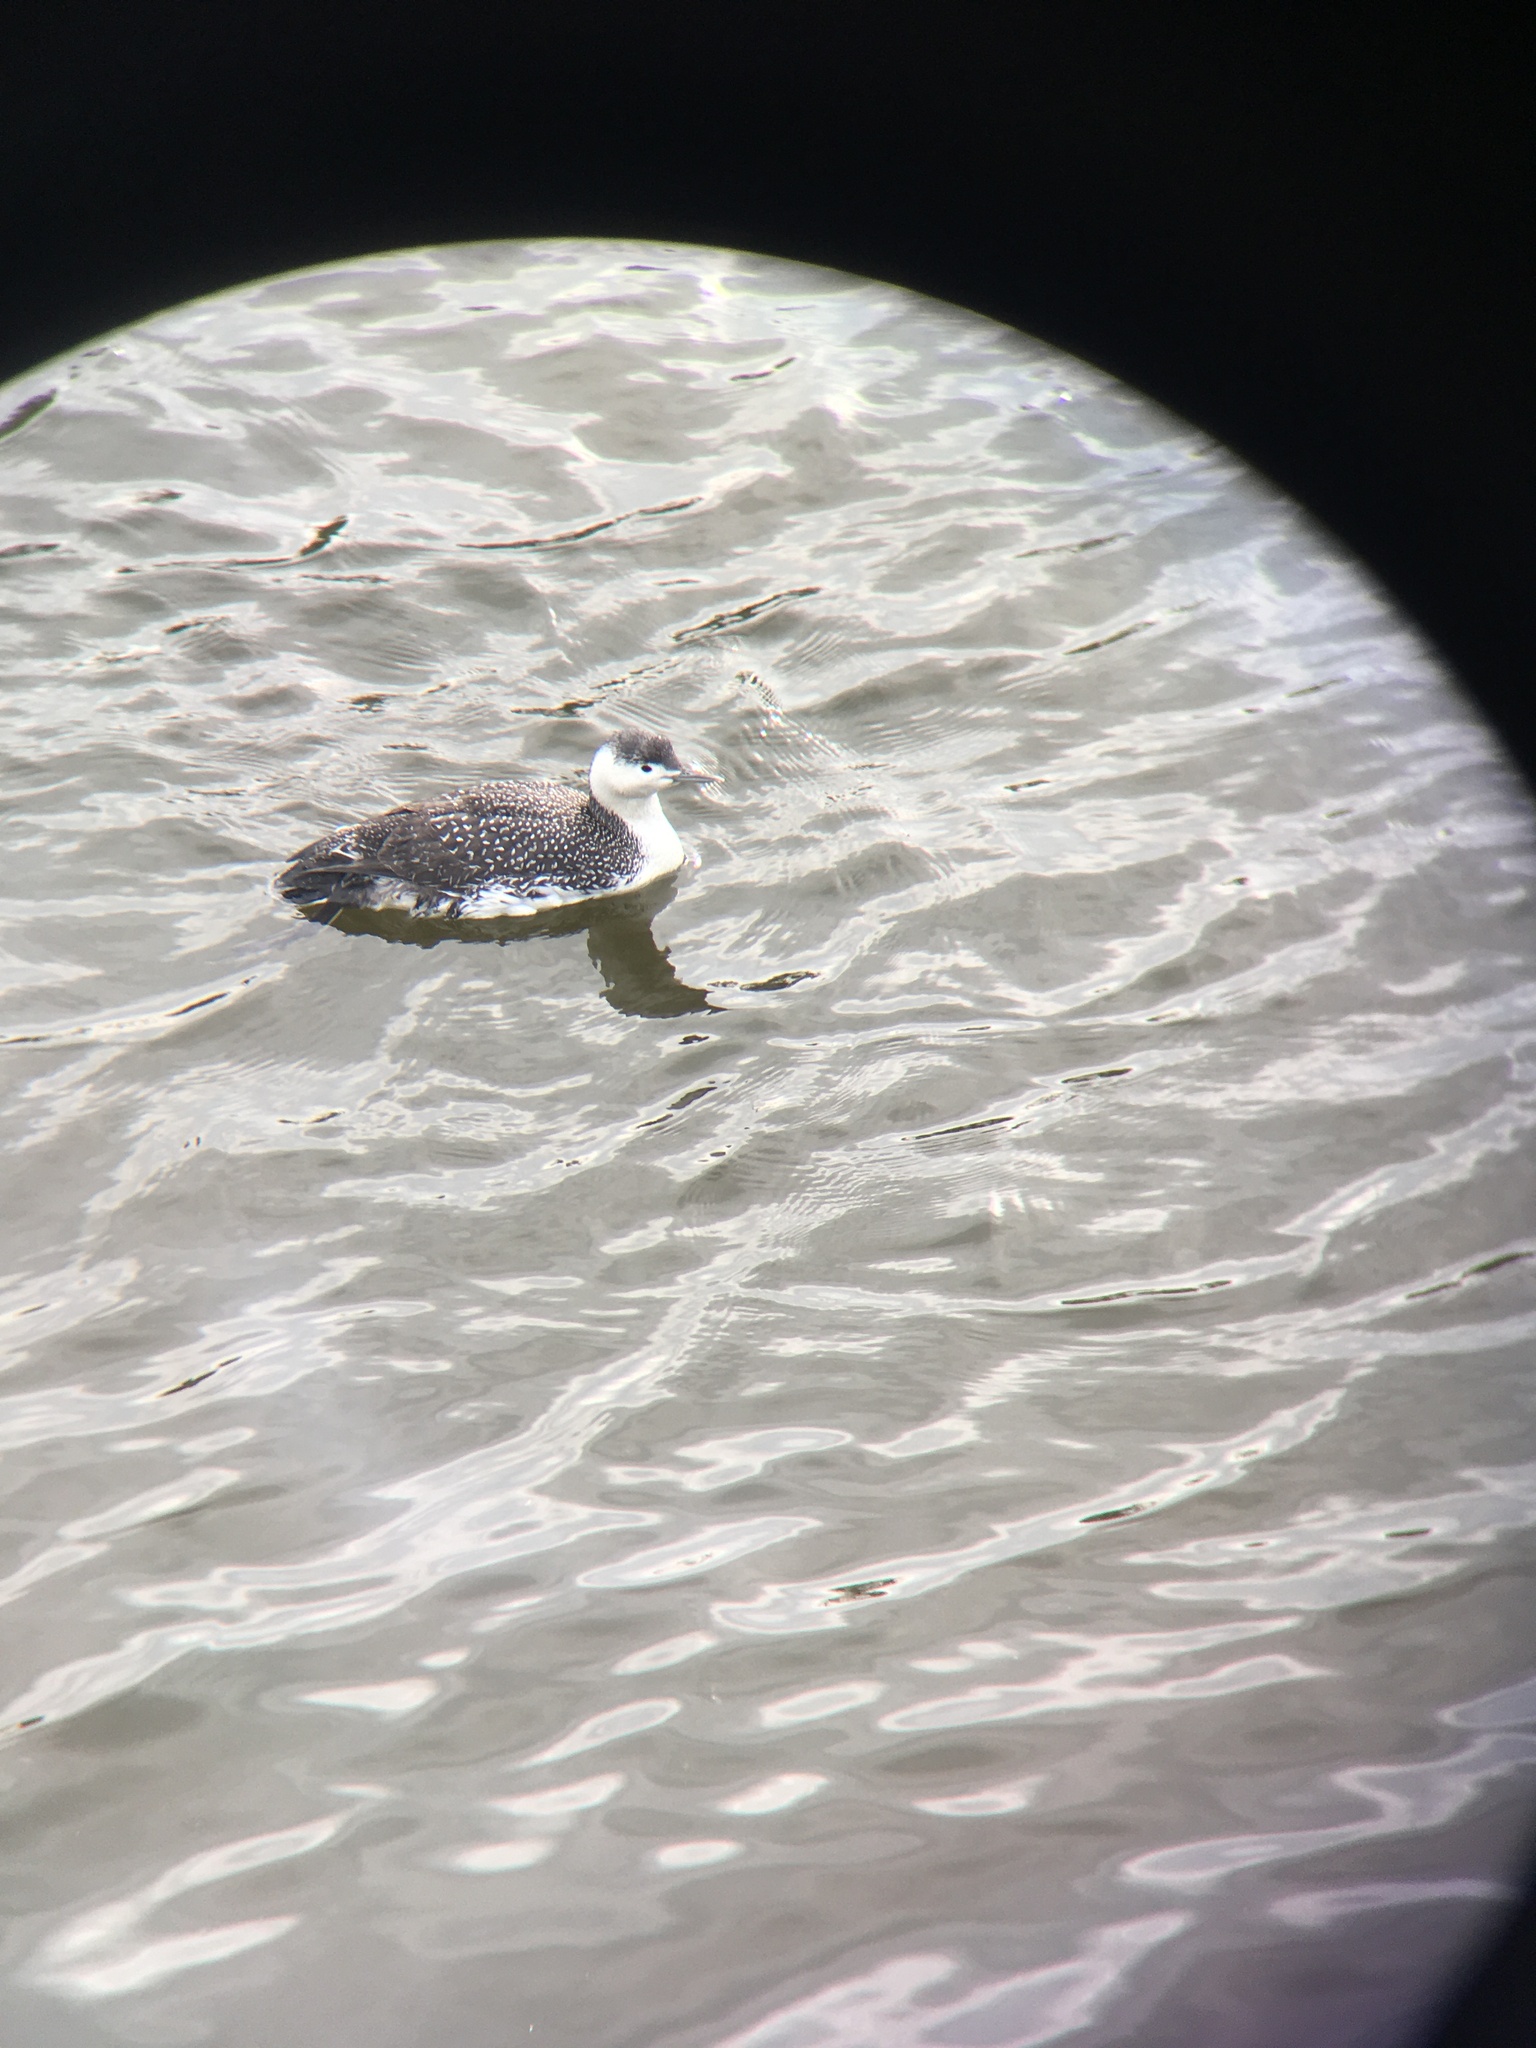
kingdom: Animalia
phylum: Chordata
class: Aves
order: Gaviiformes
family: Gaviidae
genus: Gavia
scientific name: Gavia stellata
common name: Red-throated loon
